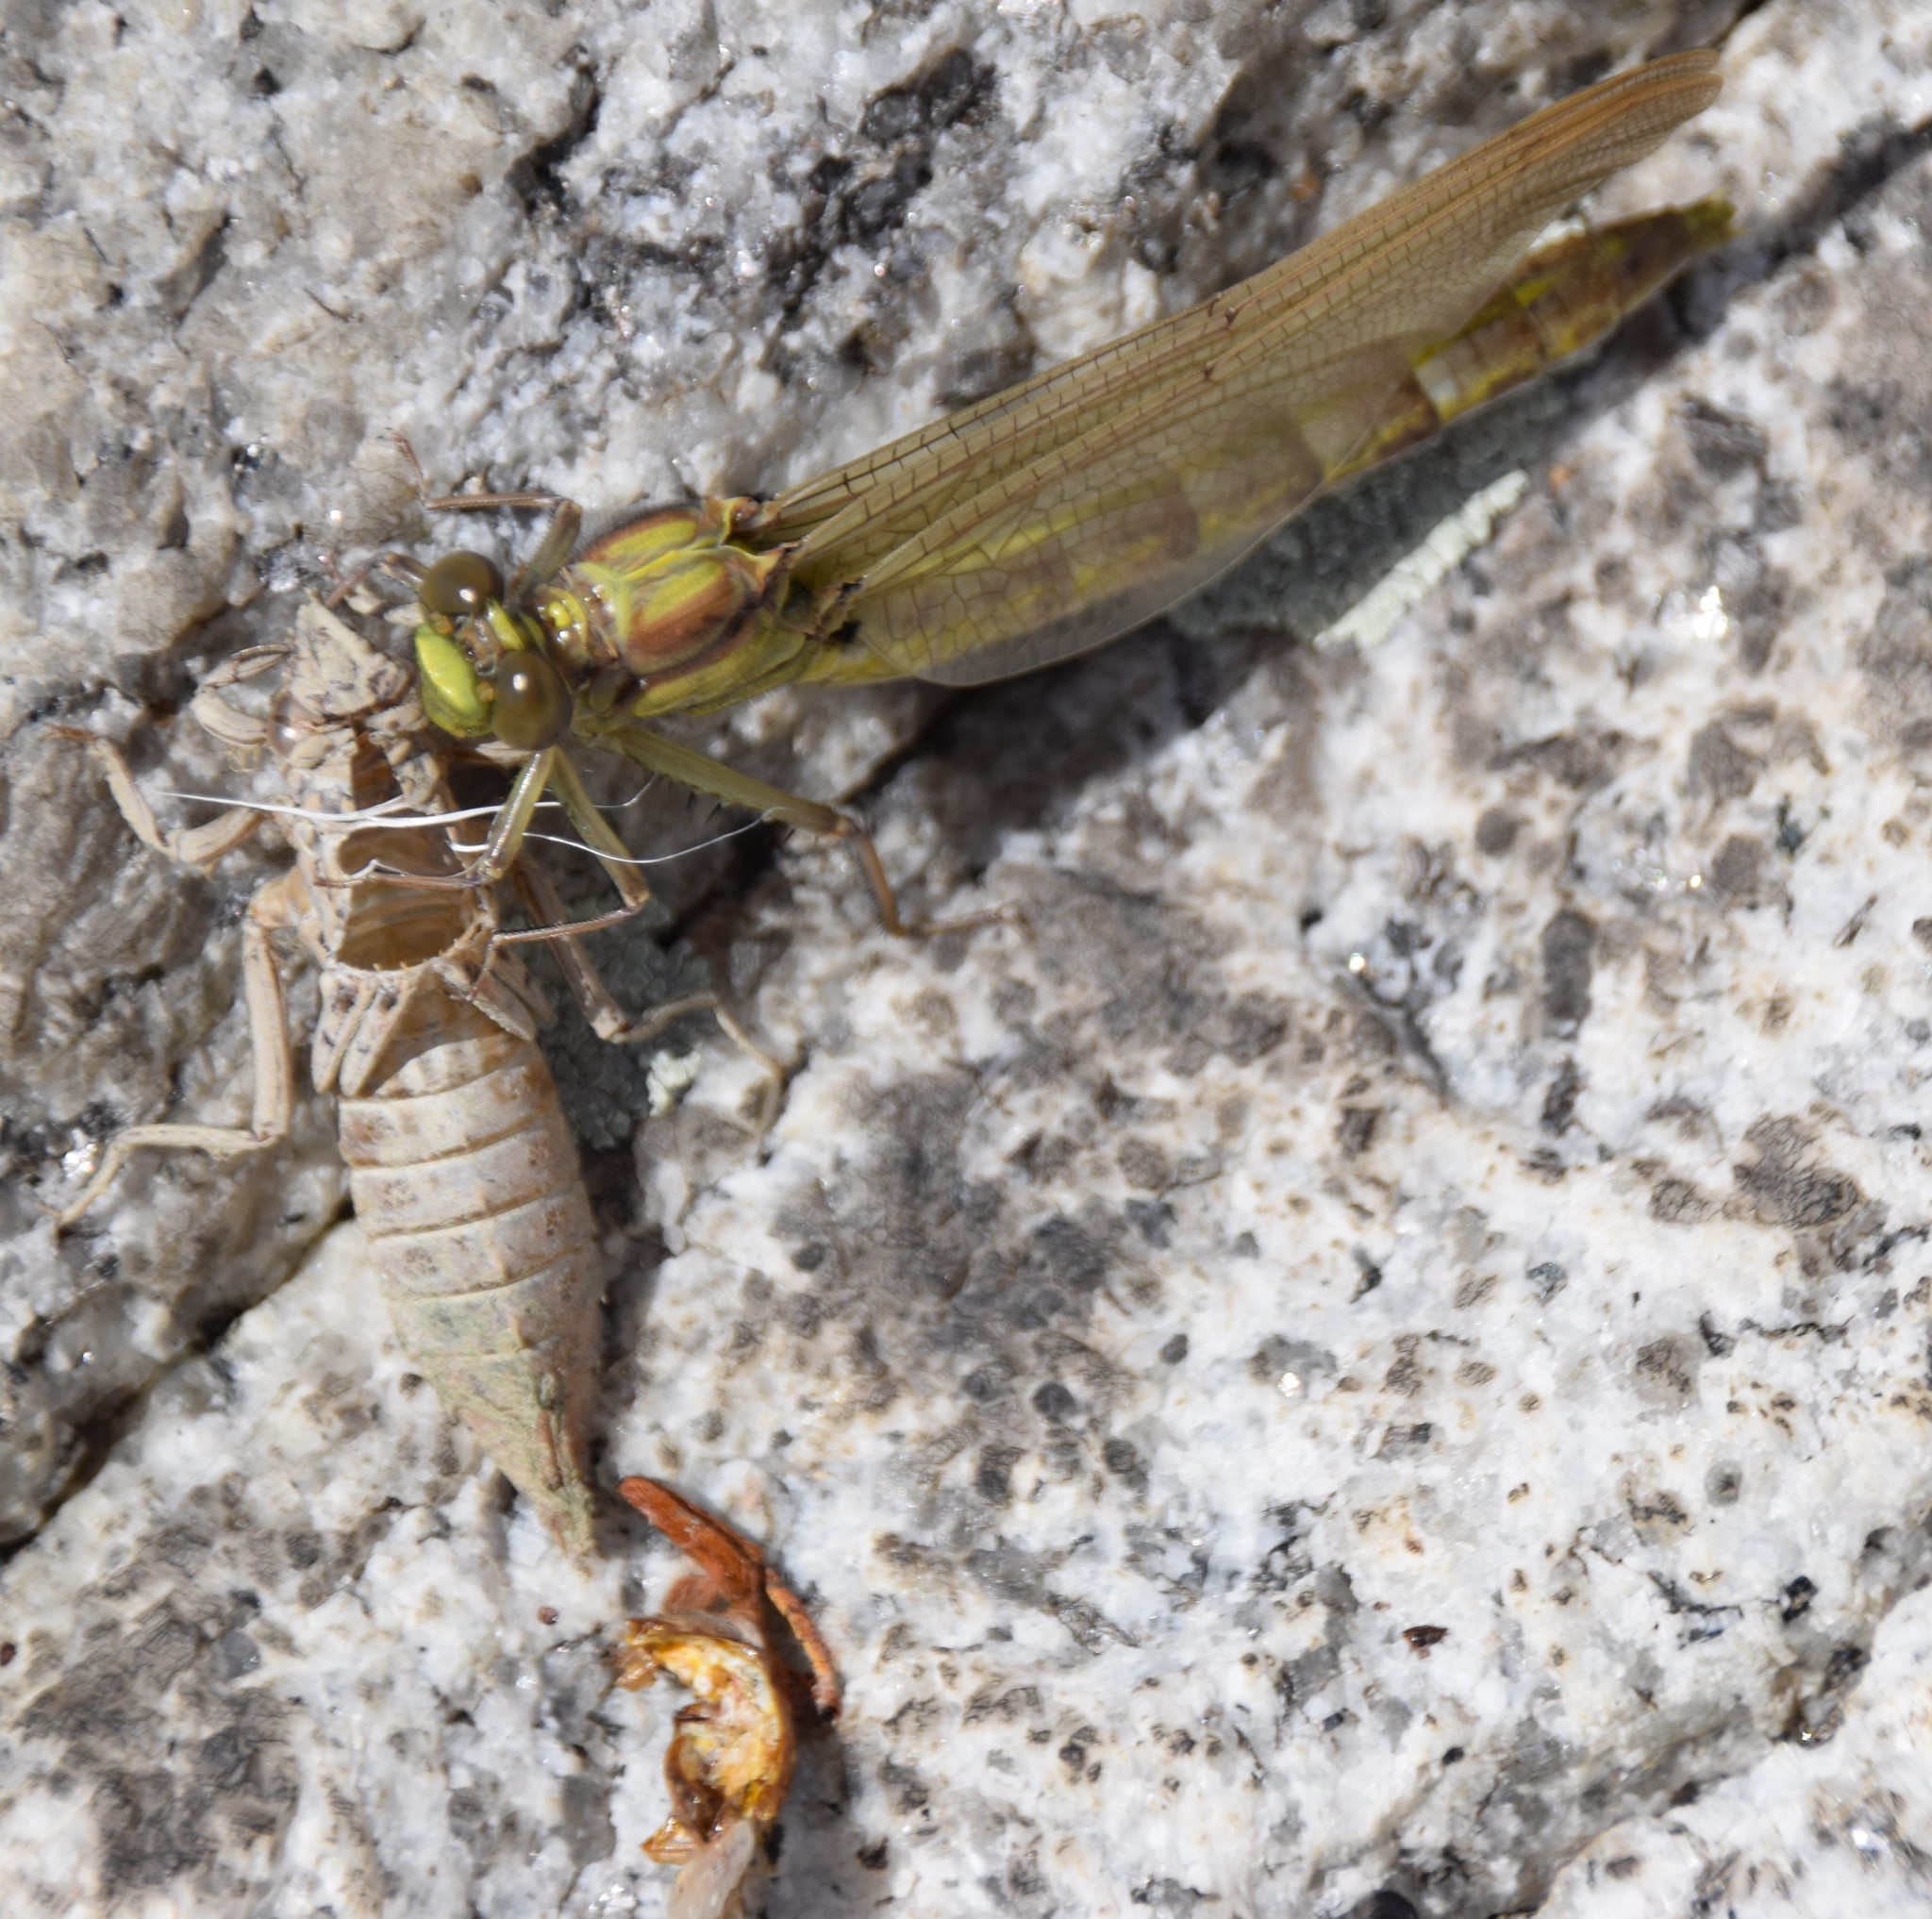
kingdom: Animalia
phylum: Arthropoda
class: Insecta
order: Odonata
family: Gomphidae
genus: Dromogomphus
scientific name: Dromogomphus spinosus
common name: Black-shouldered spinyleg
